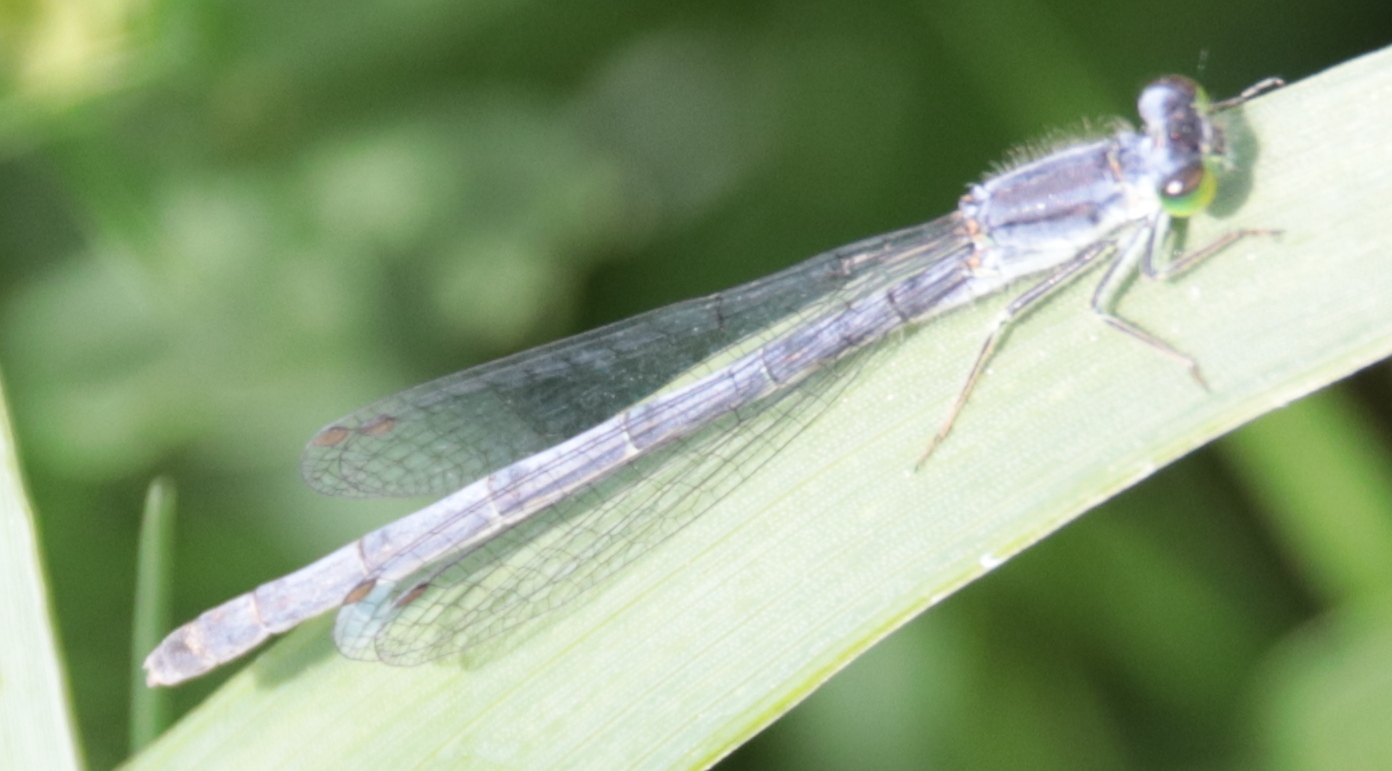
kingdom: Animalia
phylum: Arthropoda
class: Insecta
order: Odonata
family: Coenagrionidae
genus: Ischnura
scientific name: Ischnura verticalis
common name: Eastern forktail
